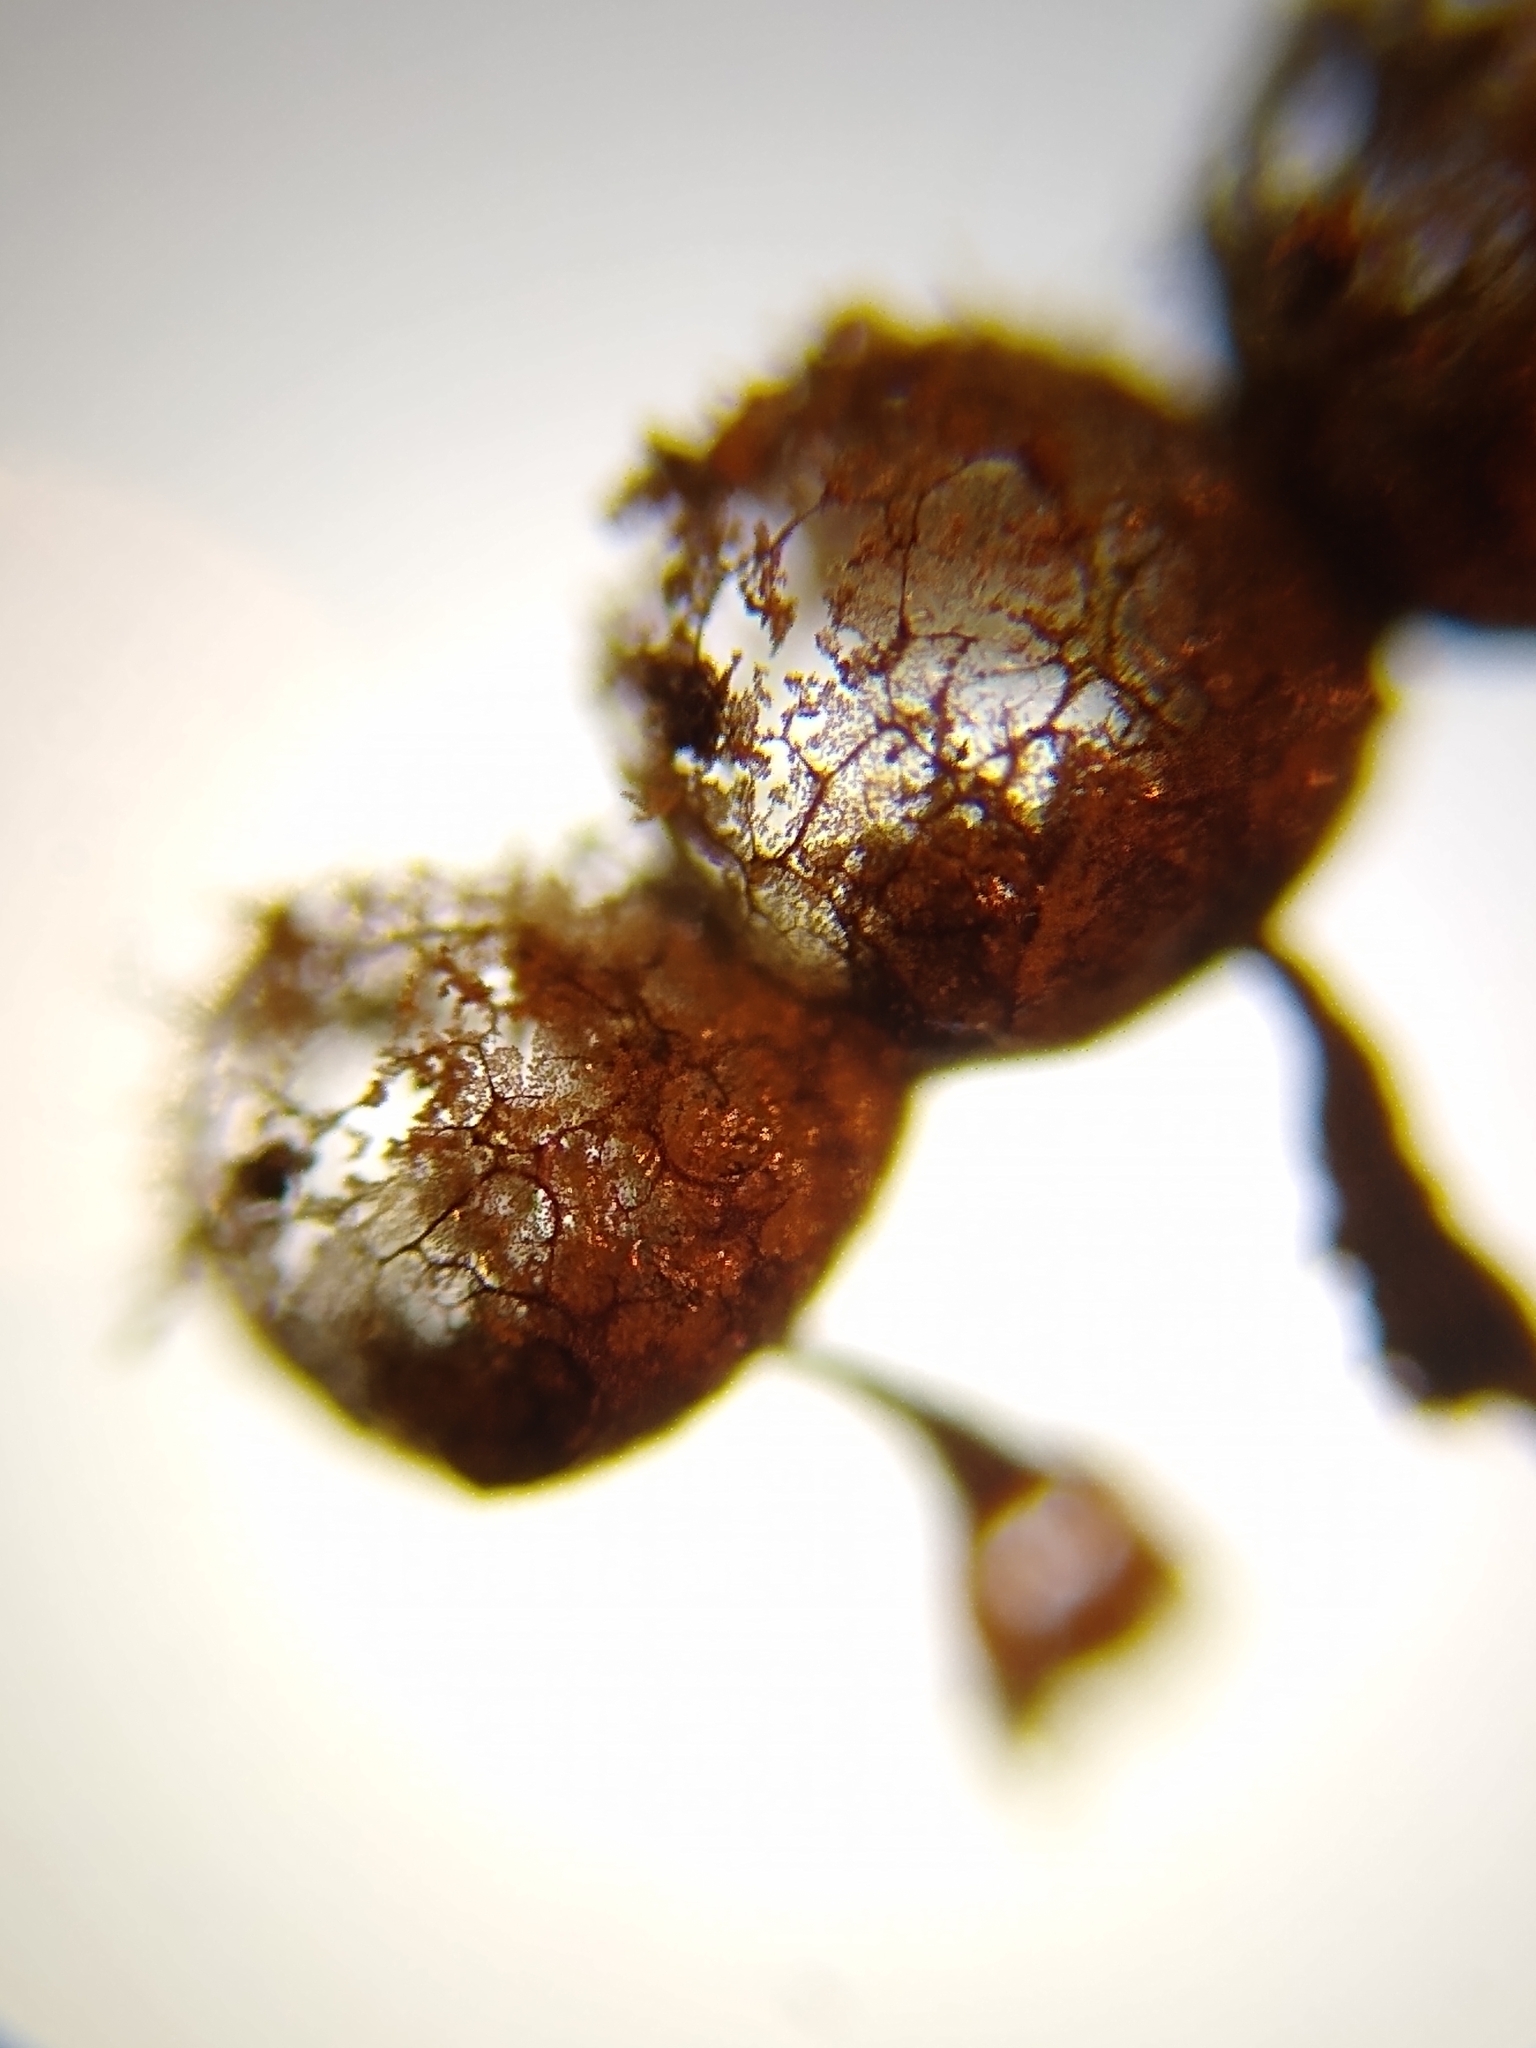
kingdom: Protozoa
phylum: Mycetozoa
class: Myxomycetes
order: Cribrariales
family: Cribrariaceae
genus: Cribraria
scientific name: Cribraria argillacea
